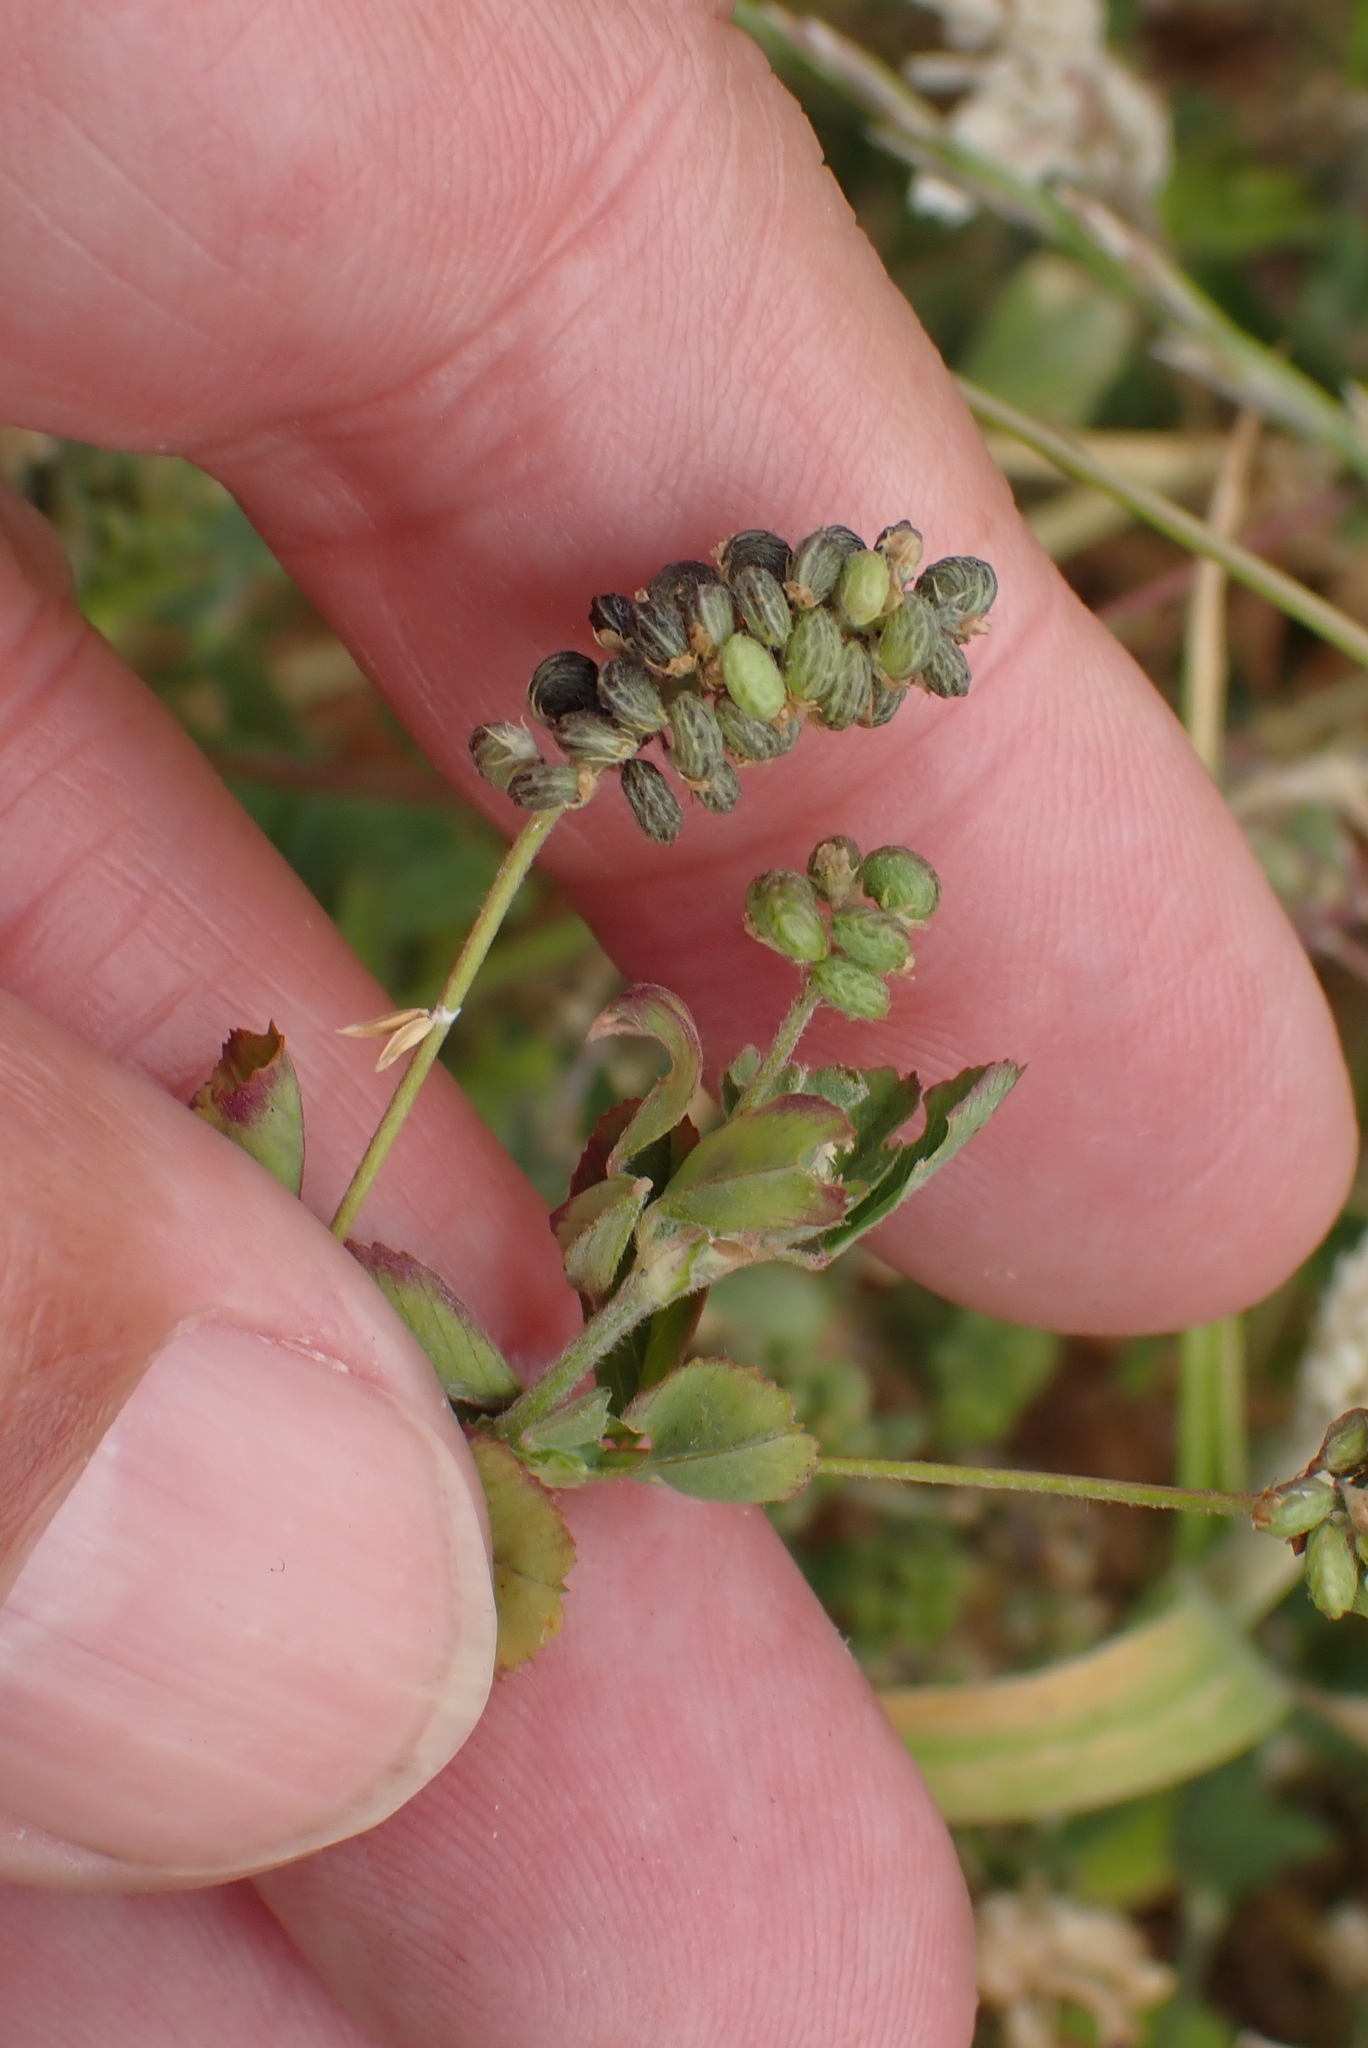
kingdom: Plantae
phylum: Tracheophyta
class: Magnoliopsida
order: Fabales
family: Fabaceae
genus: Medicago
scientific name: Medicago lupulina
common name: Black medick
